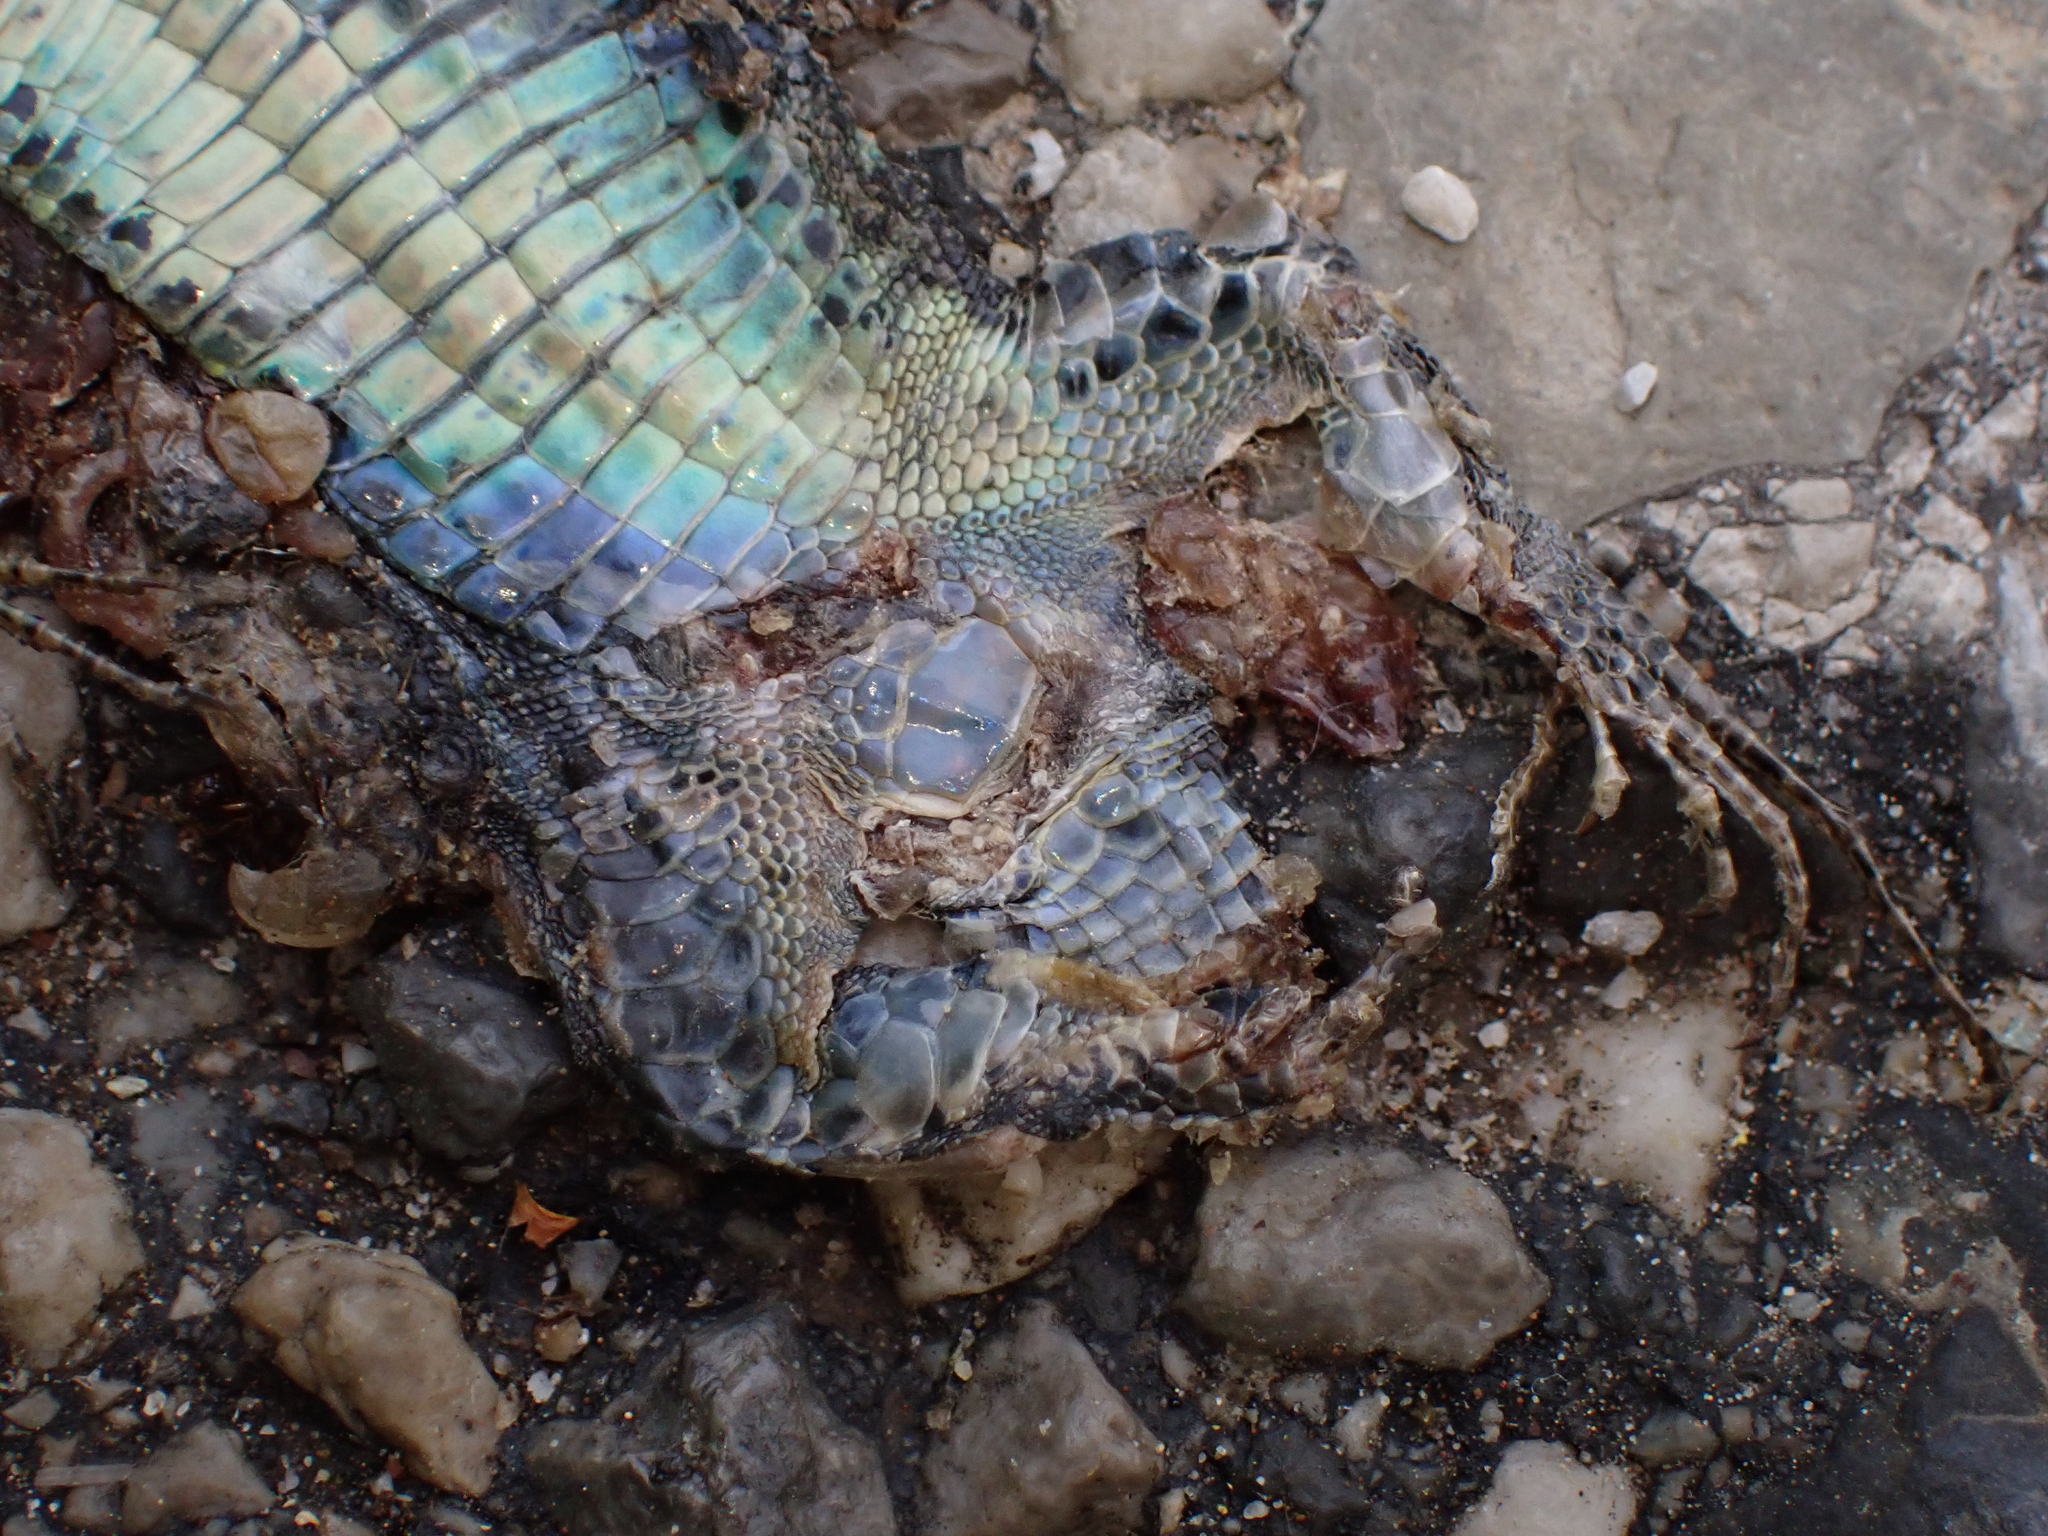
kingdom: Animalia
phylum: Chordata
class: Squamata
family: Lacertidae
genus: Podarcis
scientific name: Podarcis muralis
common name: Common wall lizard
